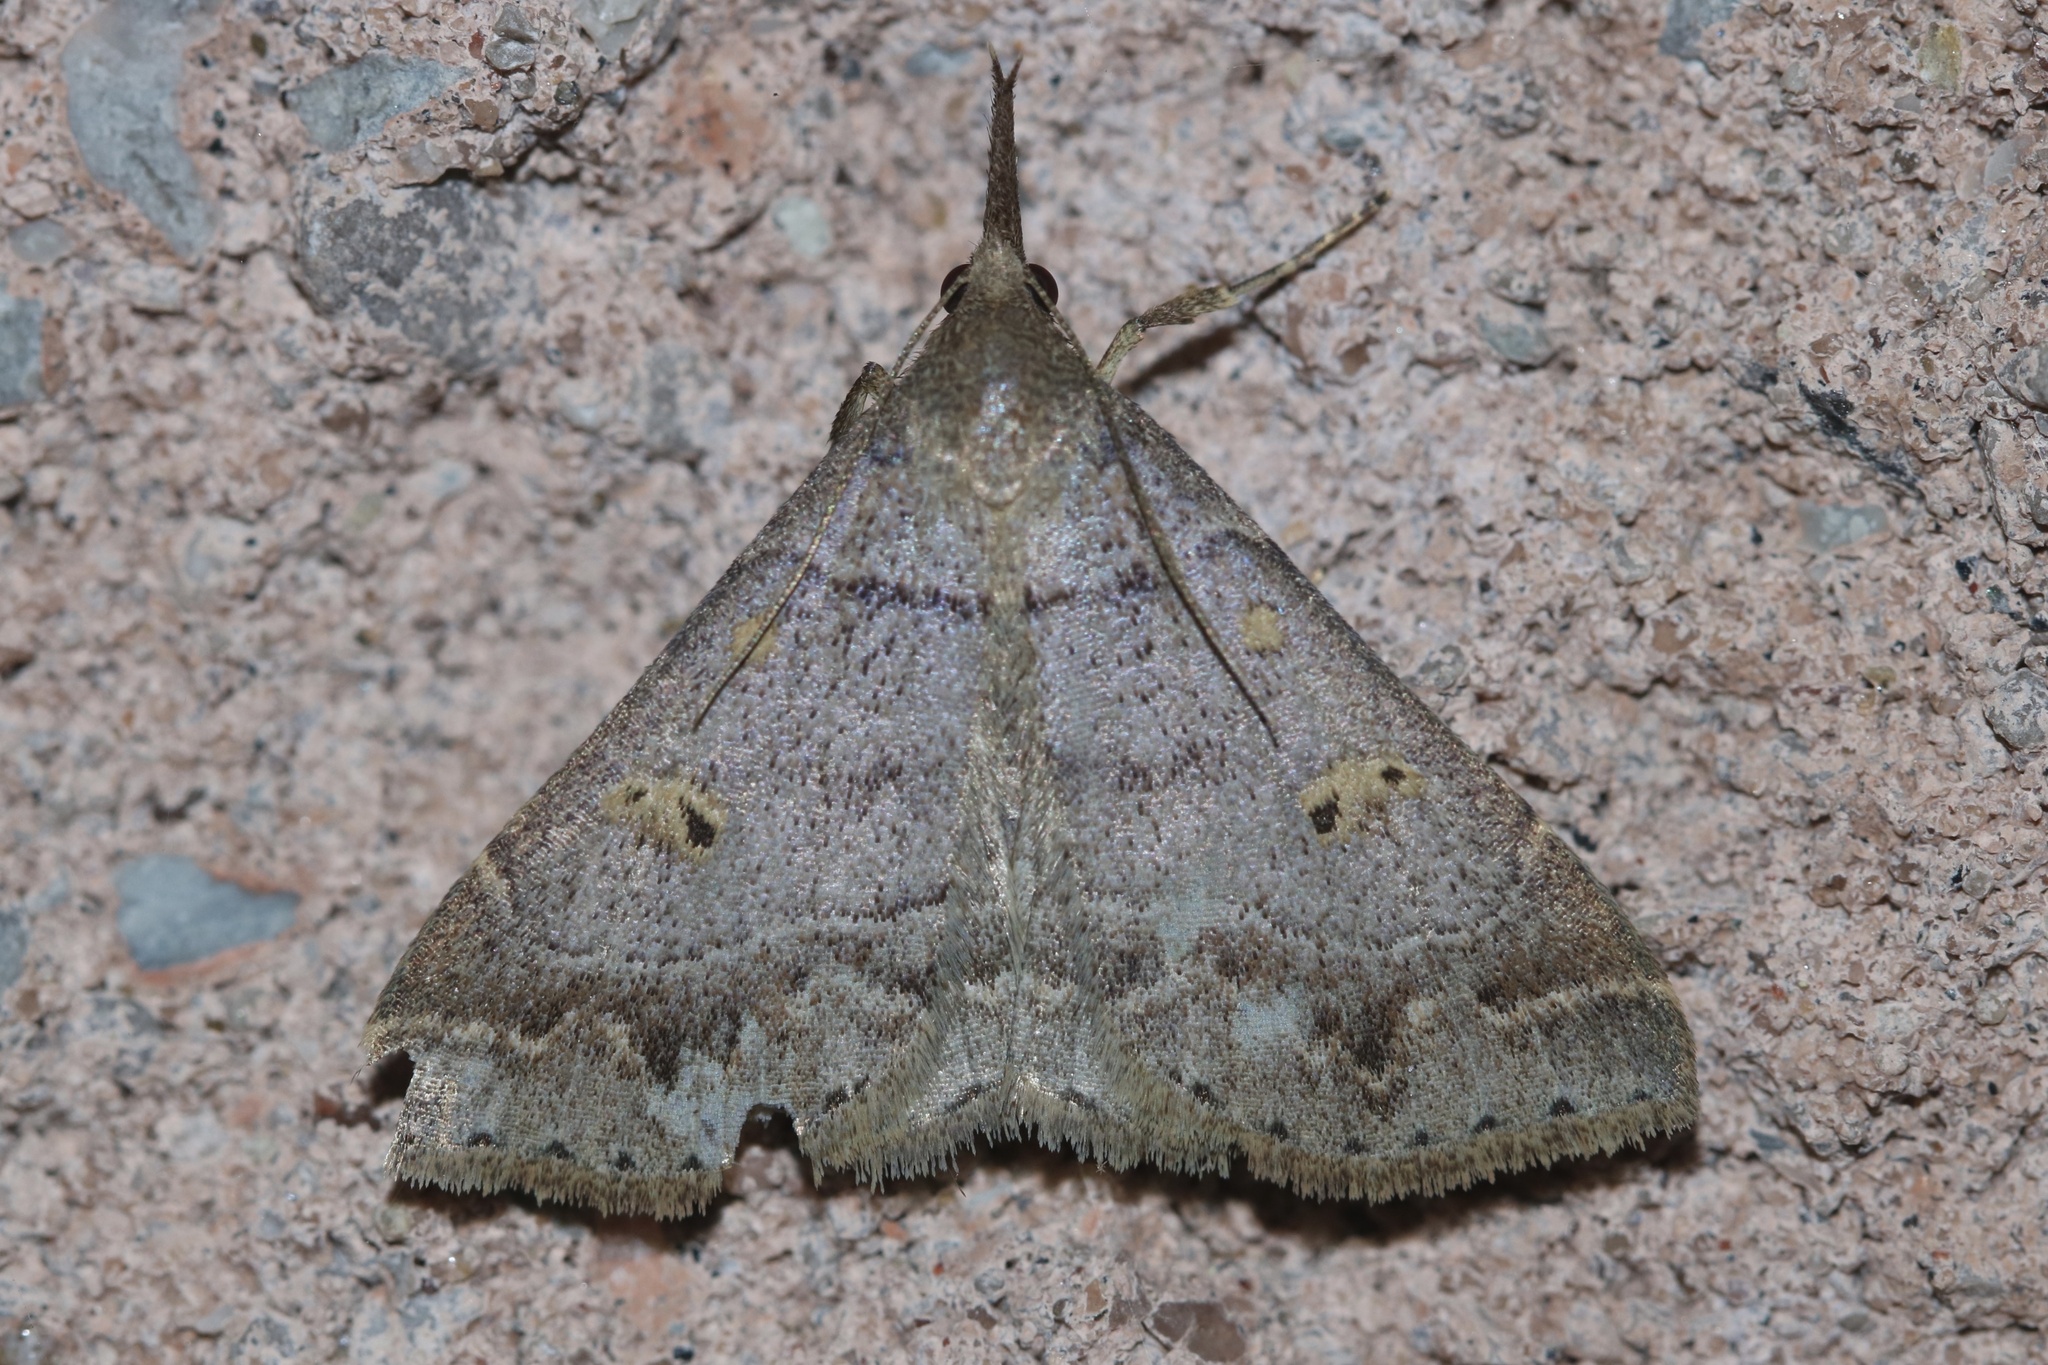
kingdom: Animalia
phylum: Arthropoda
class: Insecta
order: Lepidoptera
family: Erebidae
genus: Renia
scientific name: Renia flavipunctalis
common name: Yellow-spotted renia moth
